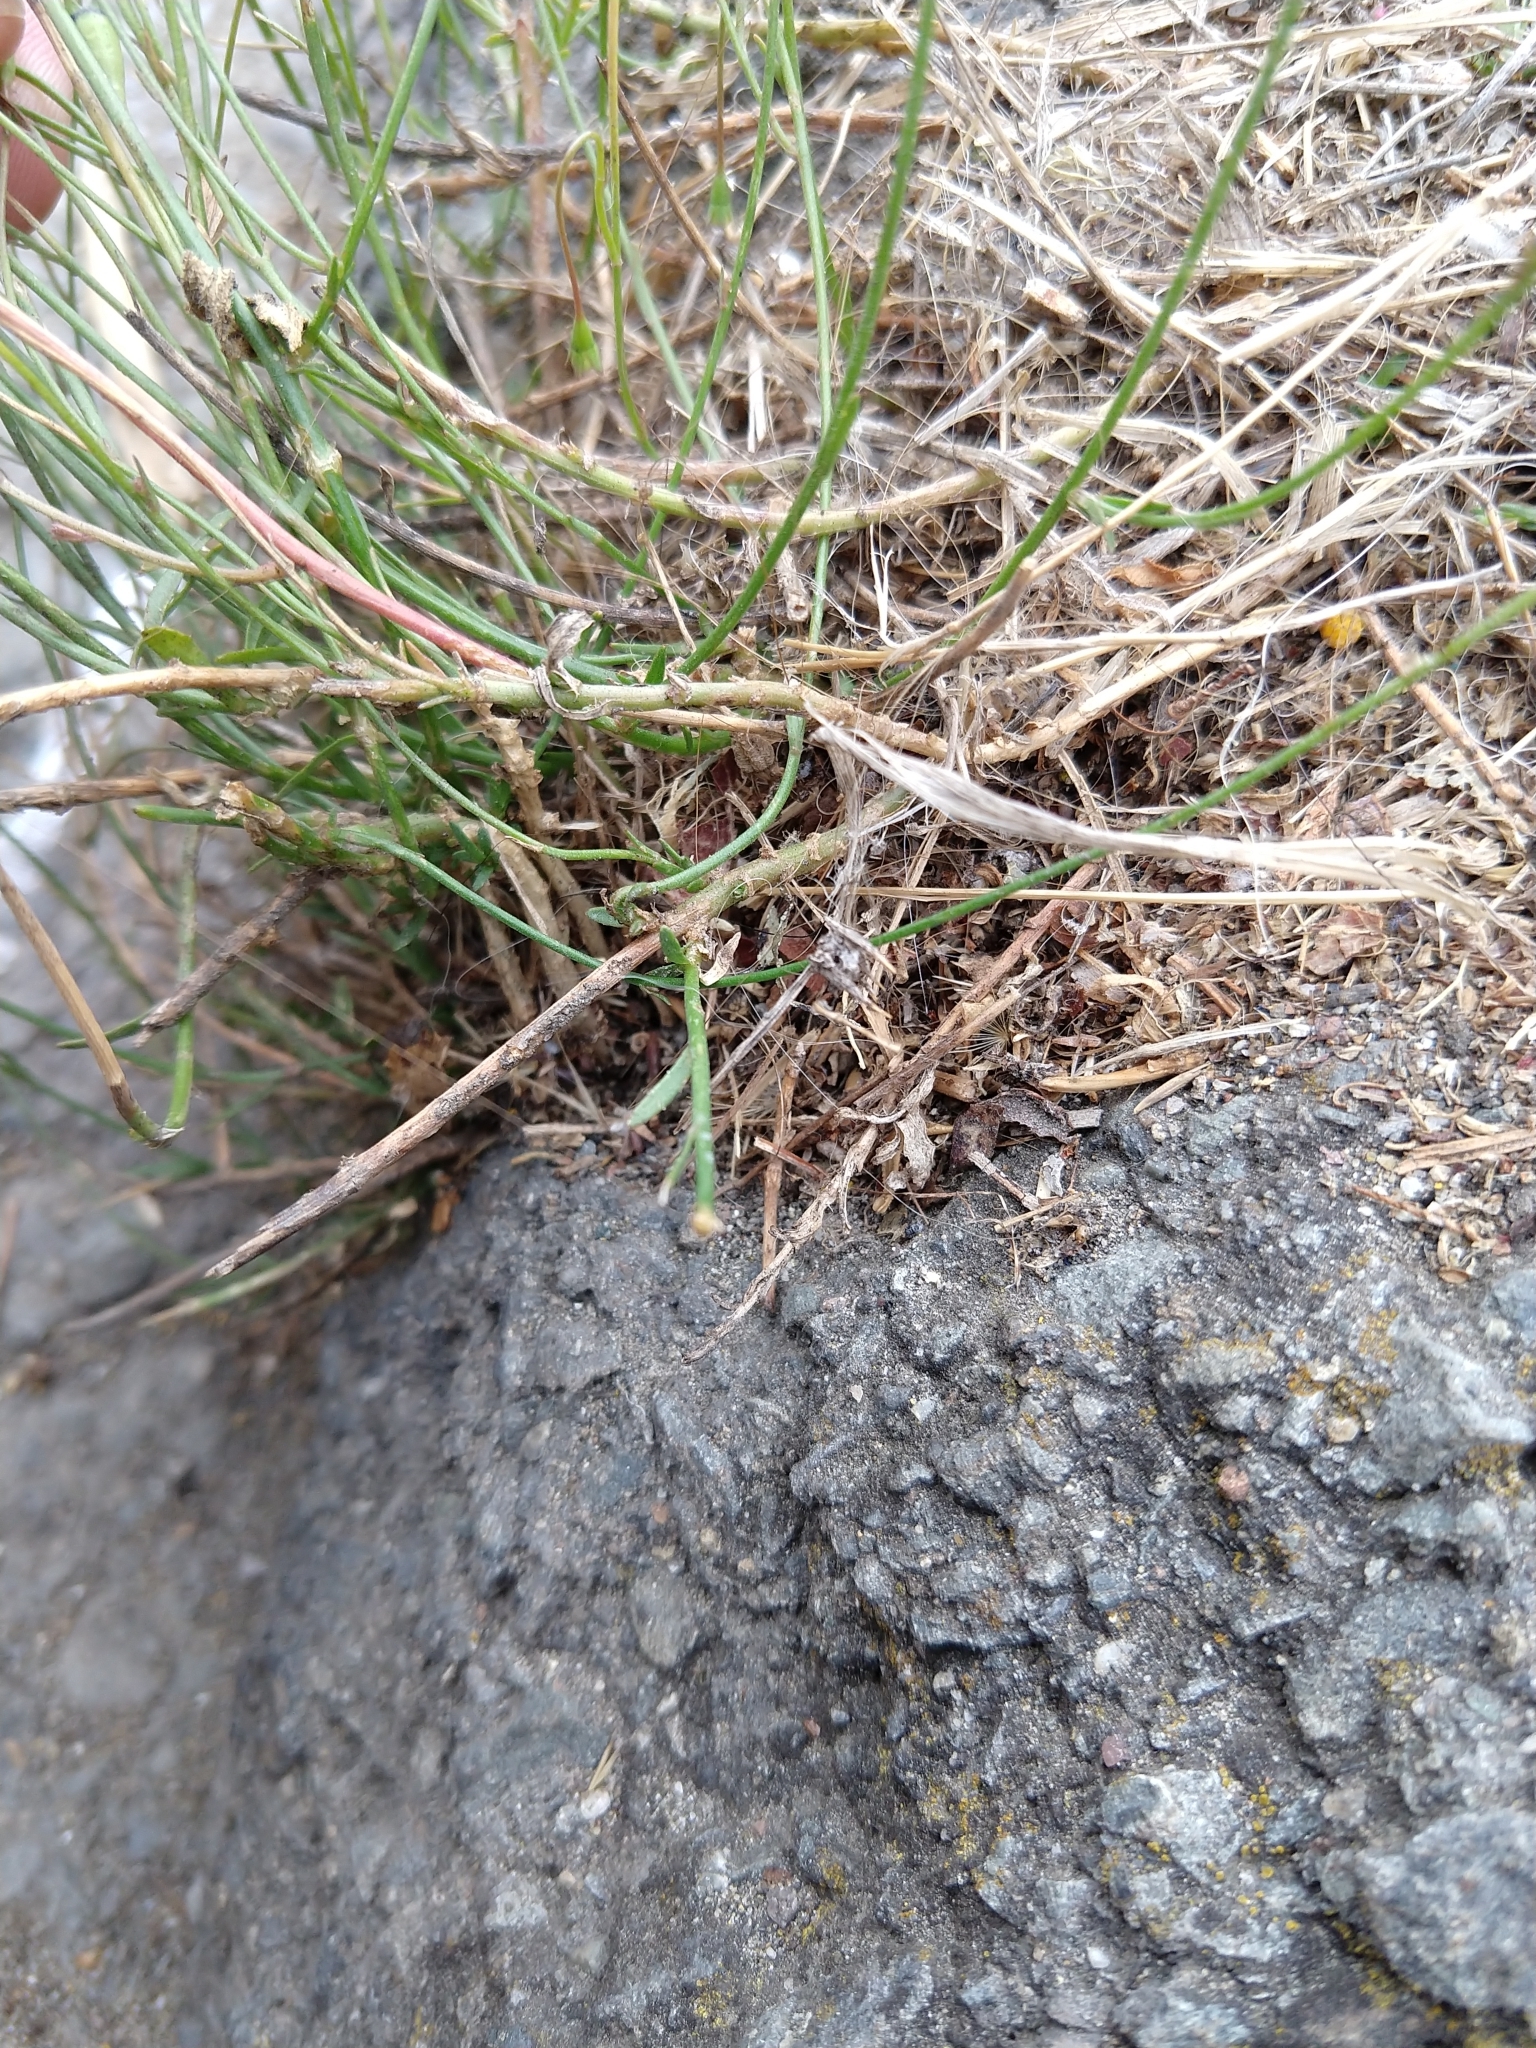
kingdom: Plantae
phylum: Tracheophyta
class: Magnoliopsida
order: Asterales
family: Campanulaceae
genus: Wahlenbergia
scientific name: Wahlenbergia marginata
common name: Southern rockbell
